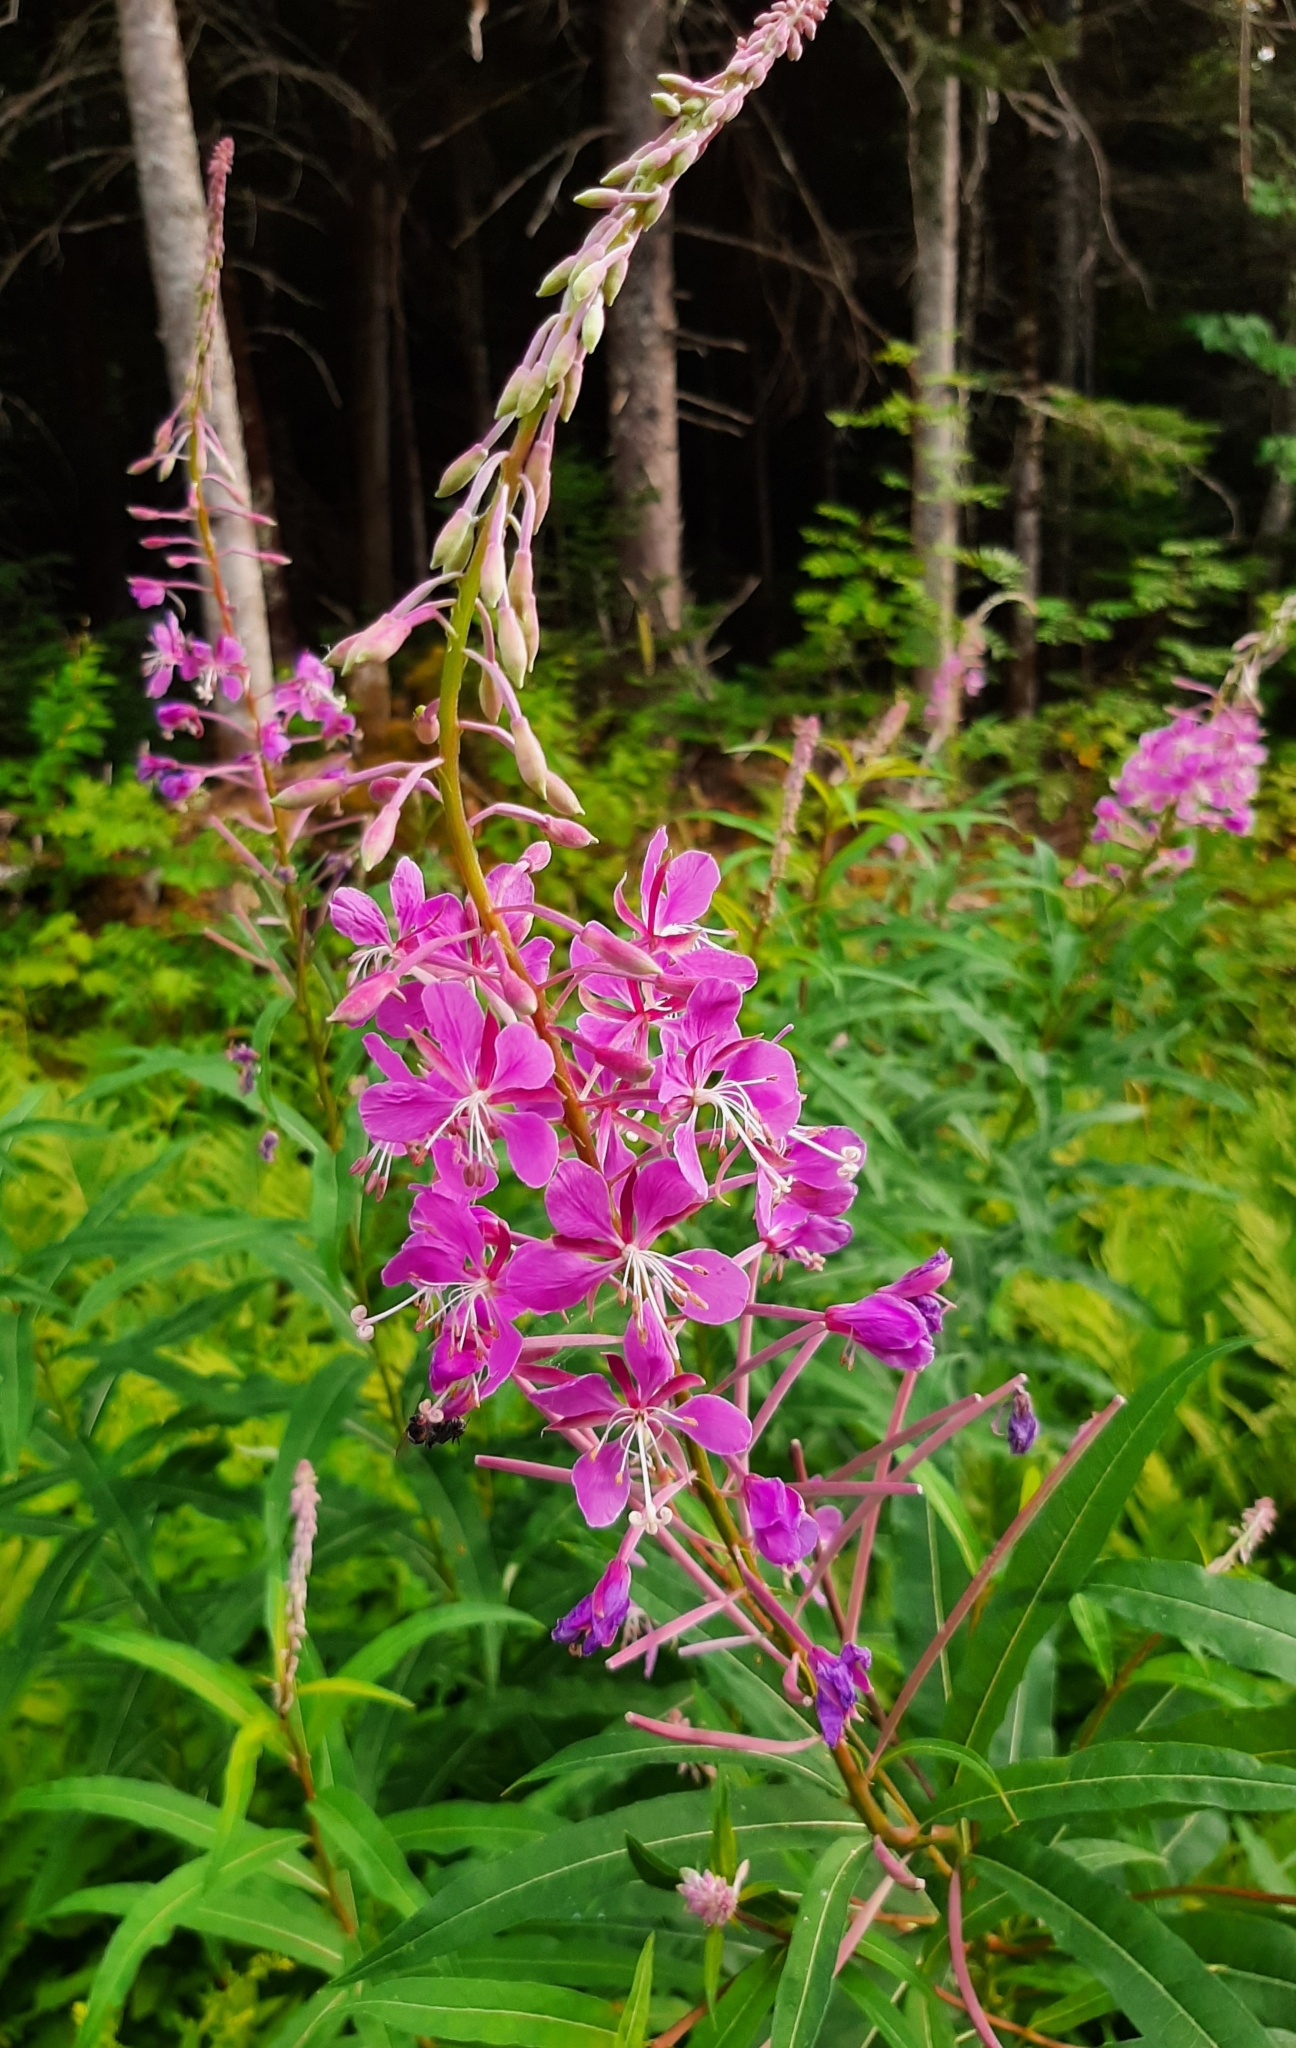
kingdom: Plantae
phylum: Tracheophyta
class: Magnoliopsida
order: Myrtales
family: Onagraceae
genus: Chamaenerion
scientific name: Chamaenerion angustifolium
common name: Fireweed
